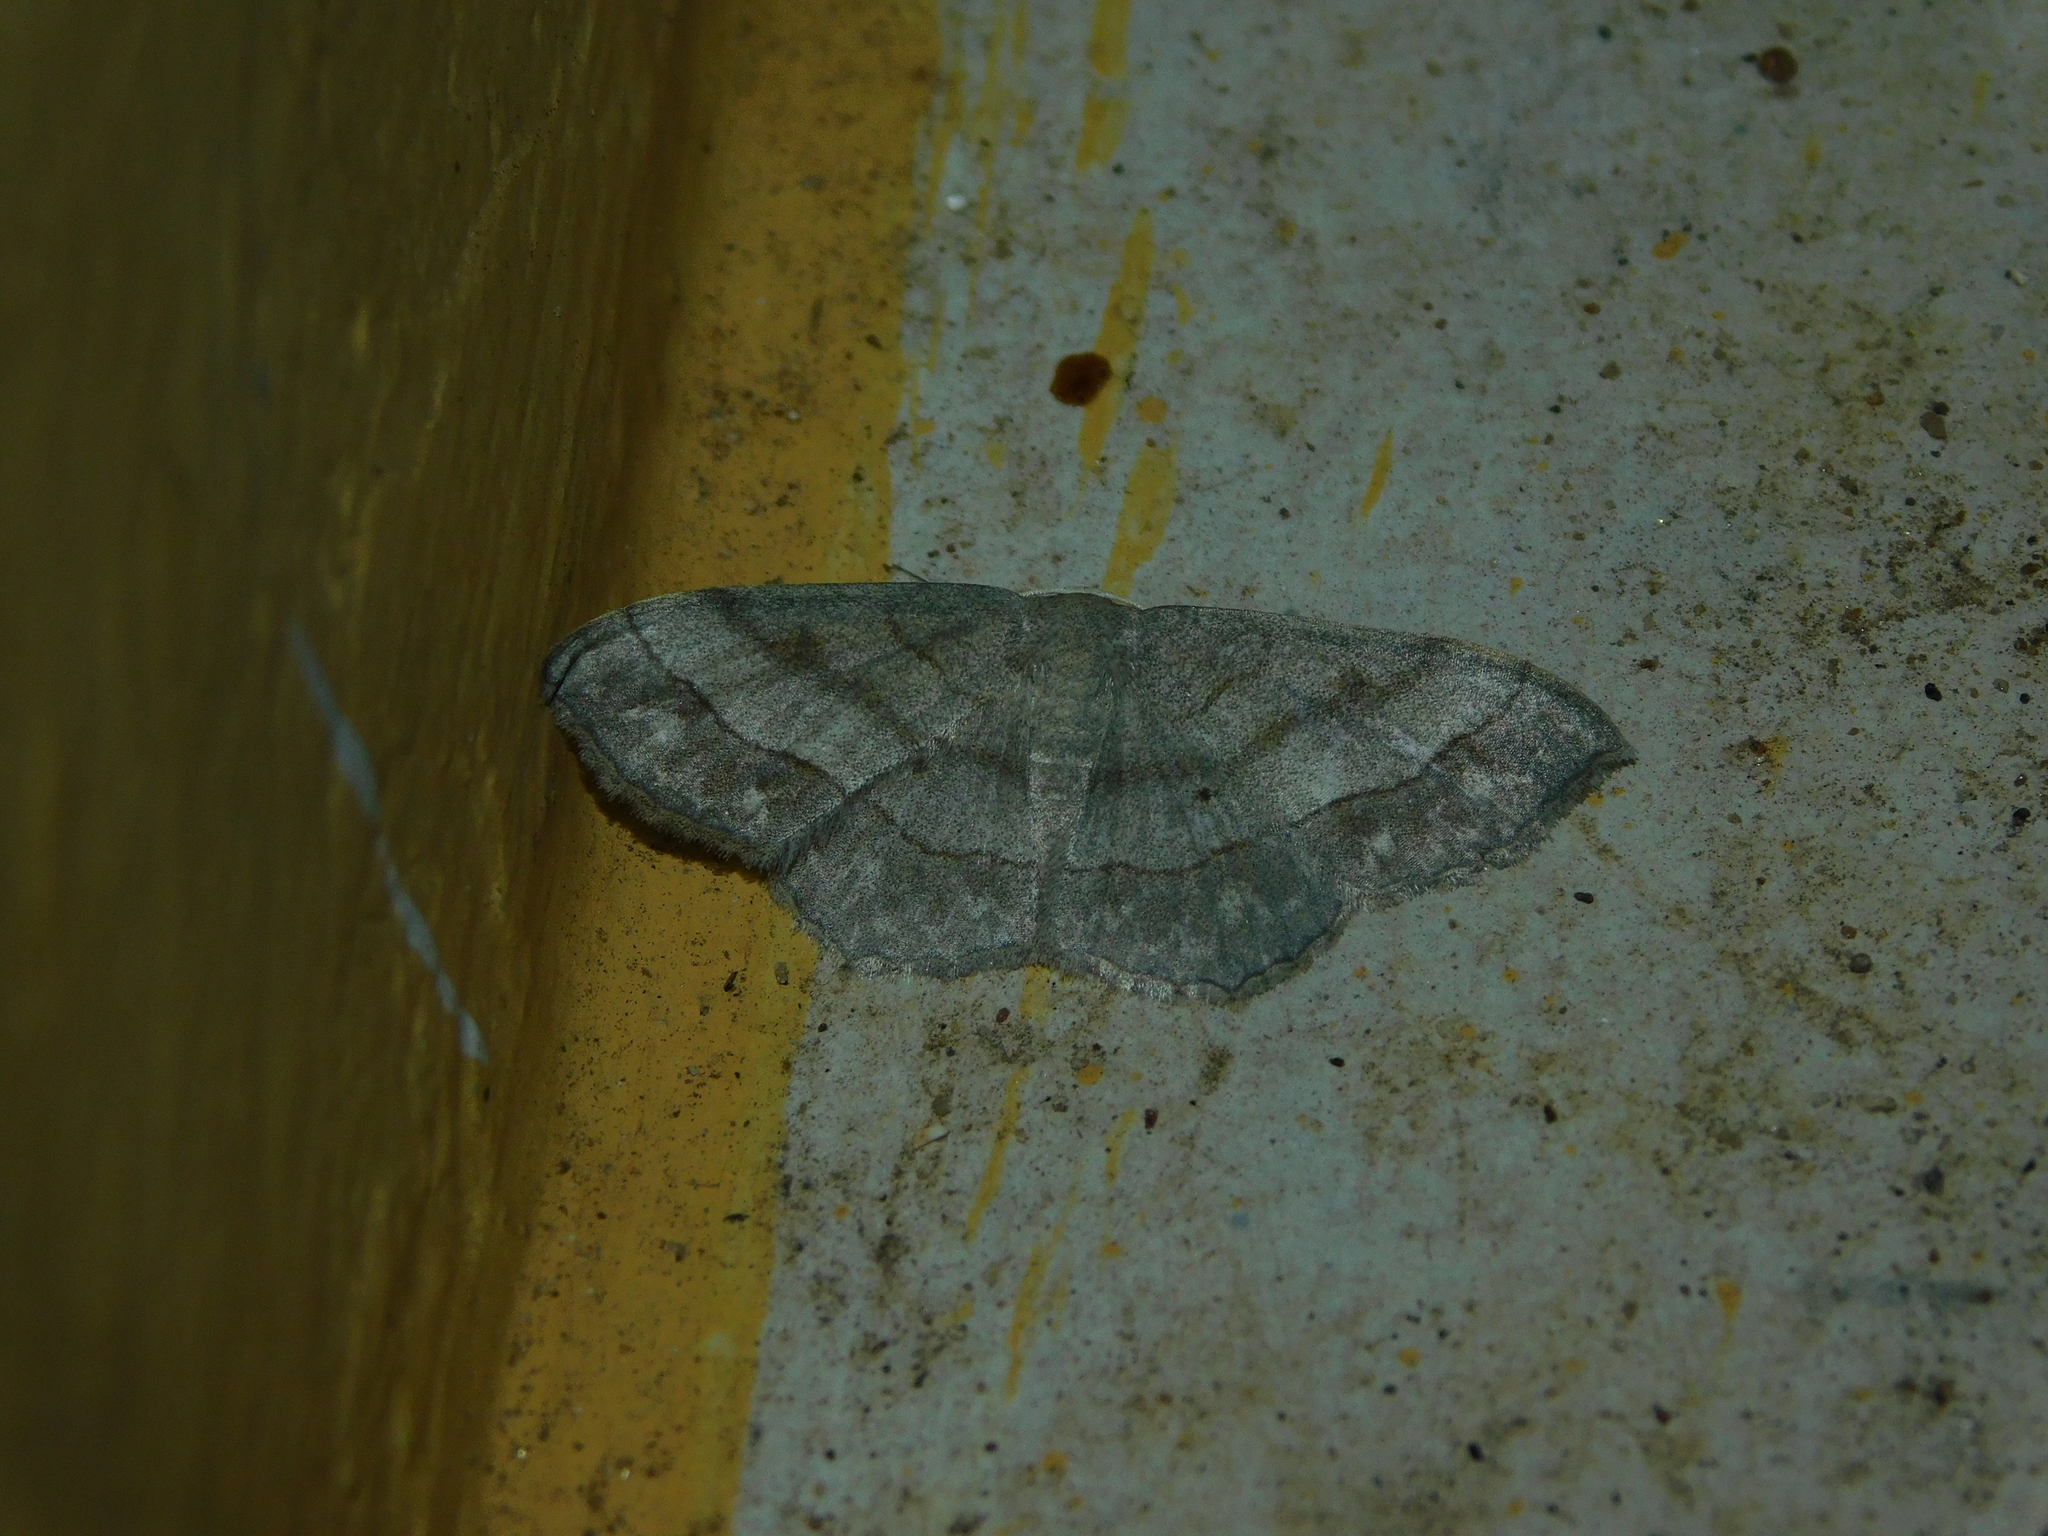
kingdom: Animalia
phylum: Arthropoda
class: Insecta
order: Lepidoptera
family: Geometridae
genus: Scopula
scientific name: Scopula modesta
